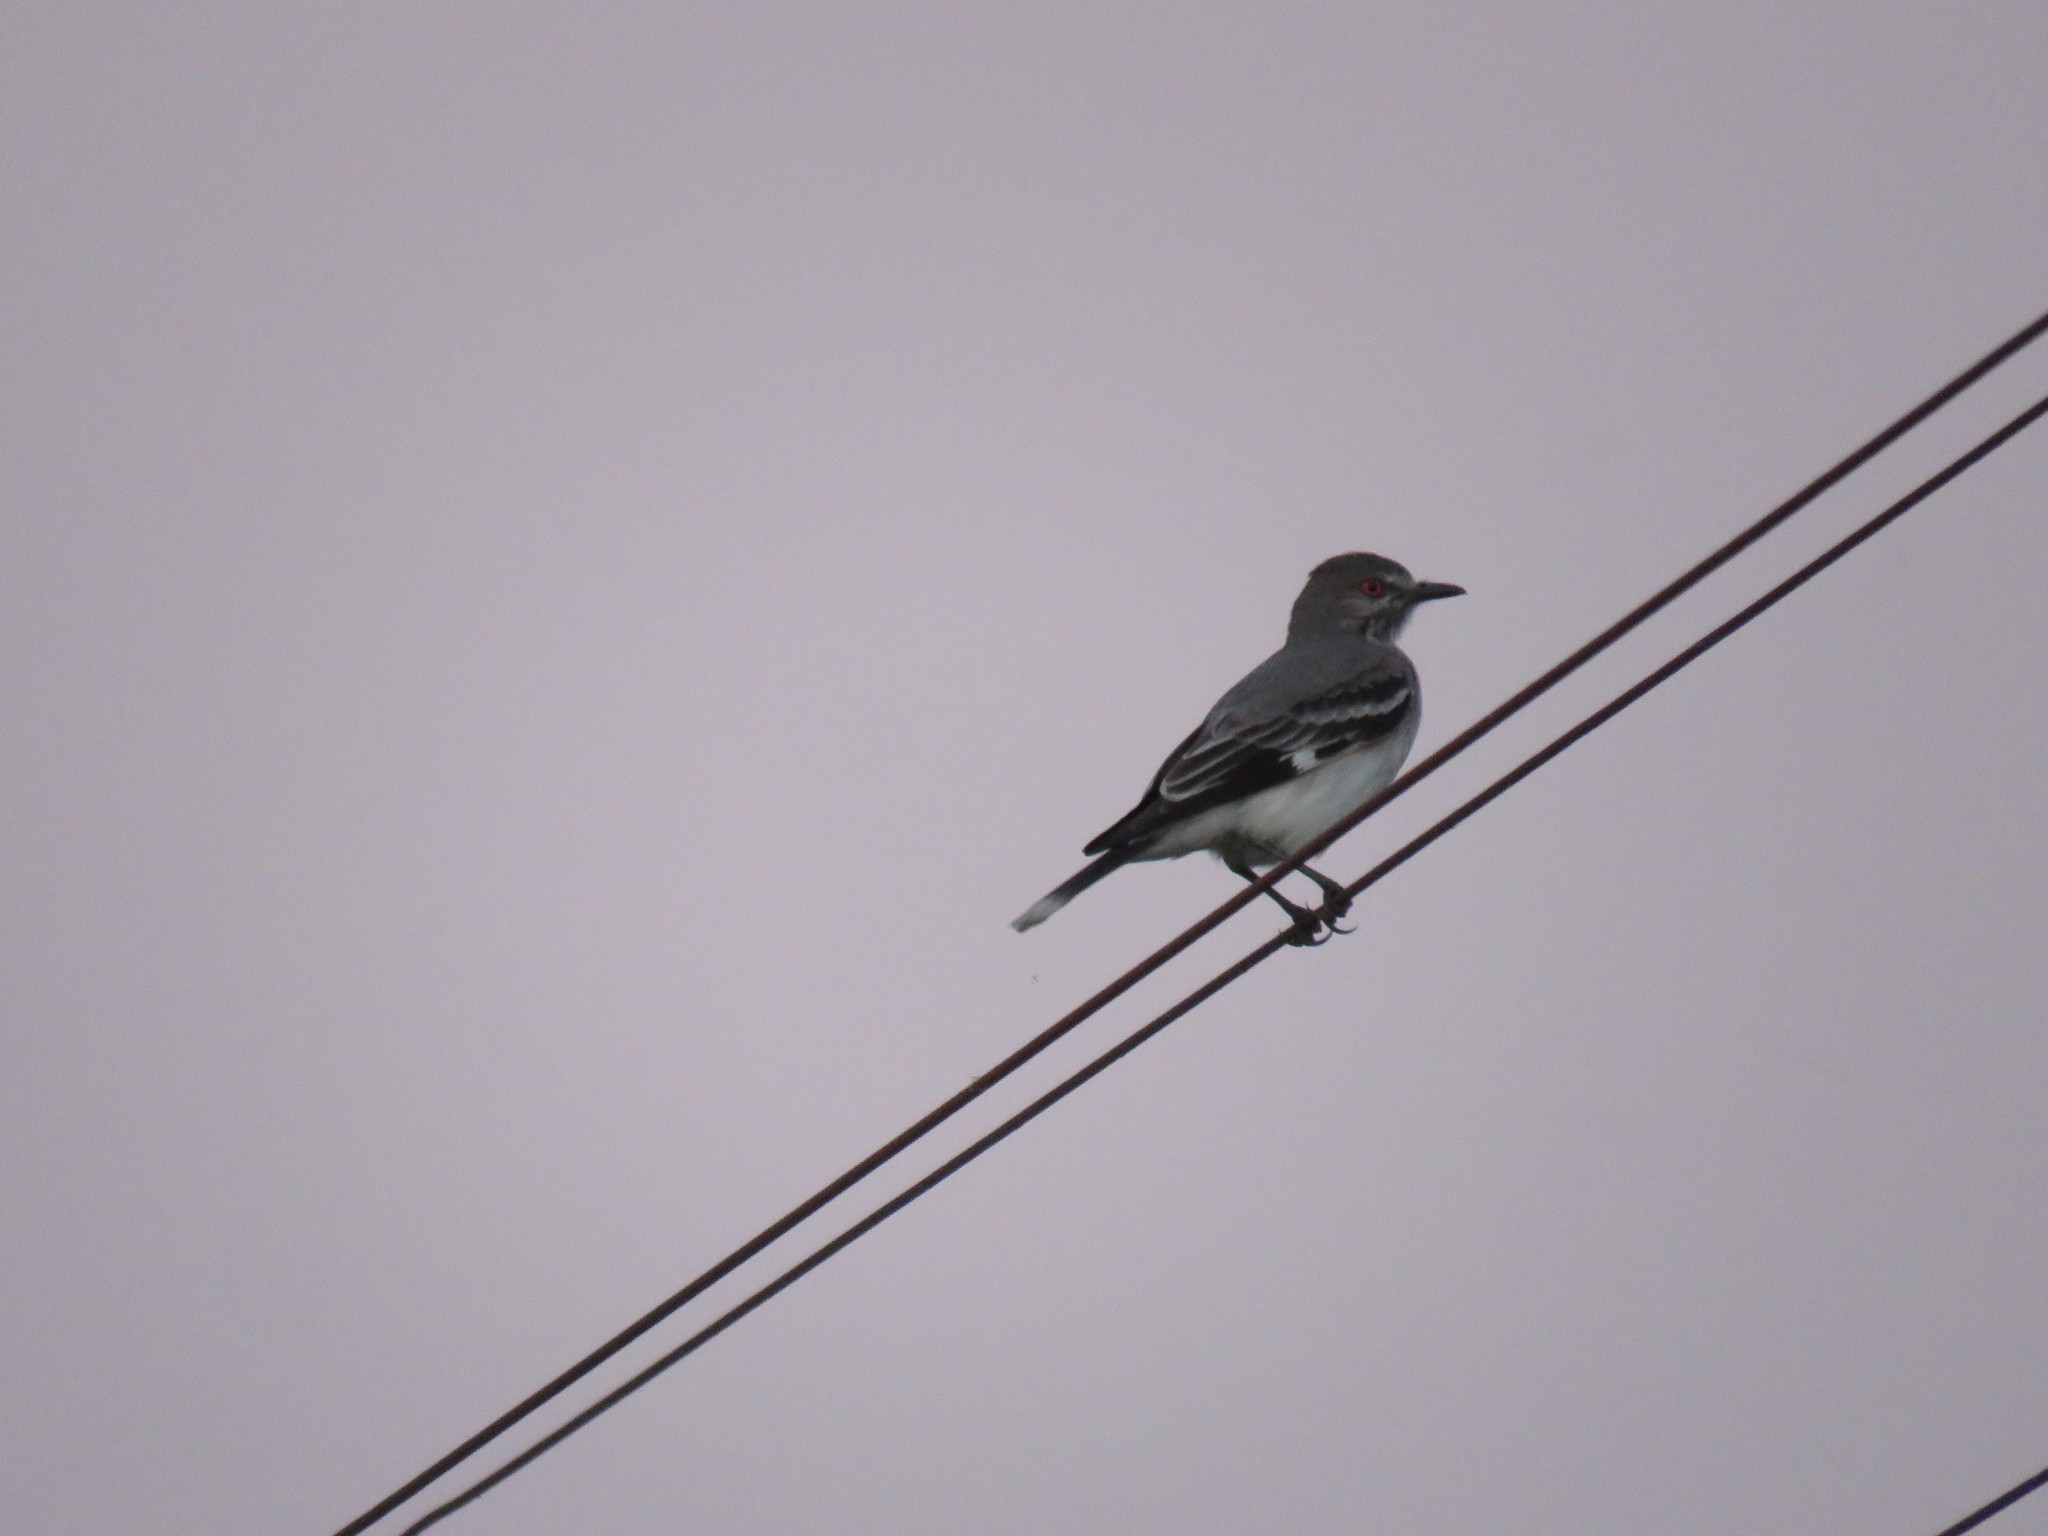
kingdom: Animalia
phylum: Chordata
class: Aves
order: Passeriformes
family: Tyrannidae
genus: Xolmis
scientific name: Xolmis cinereus
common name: Grey monjita
